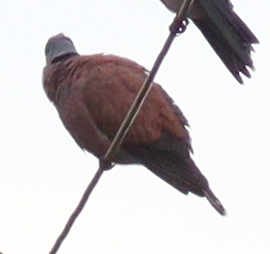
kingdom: Animalia
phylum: Chordata
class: Aves
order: Columbiformes
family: Columbidae
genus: Streptopelia
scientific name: Streptopelia tranquebarica
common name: Red turtle dove
